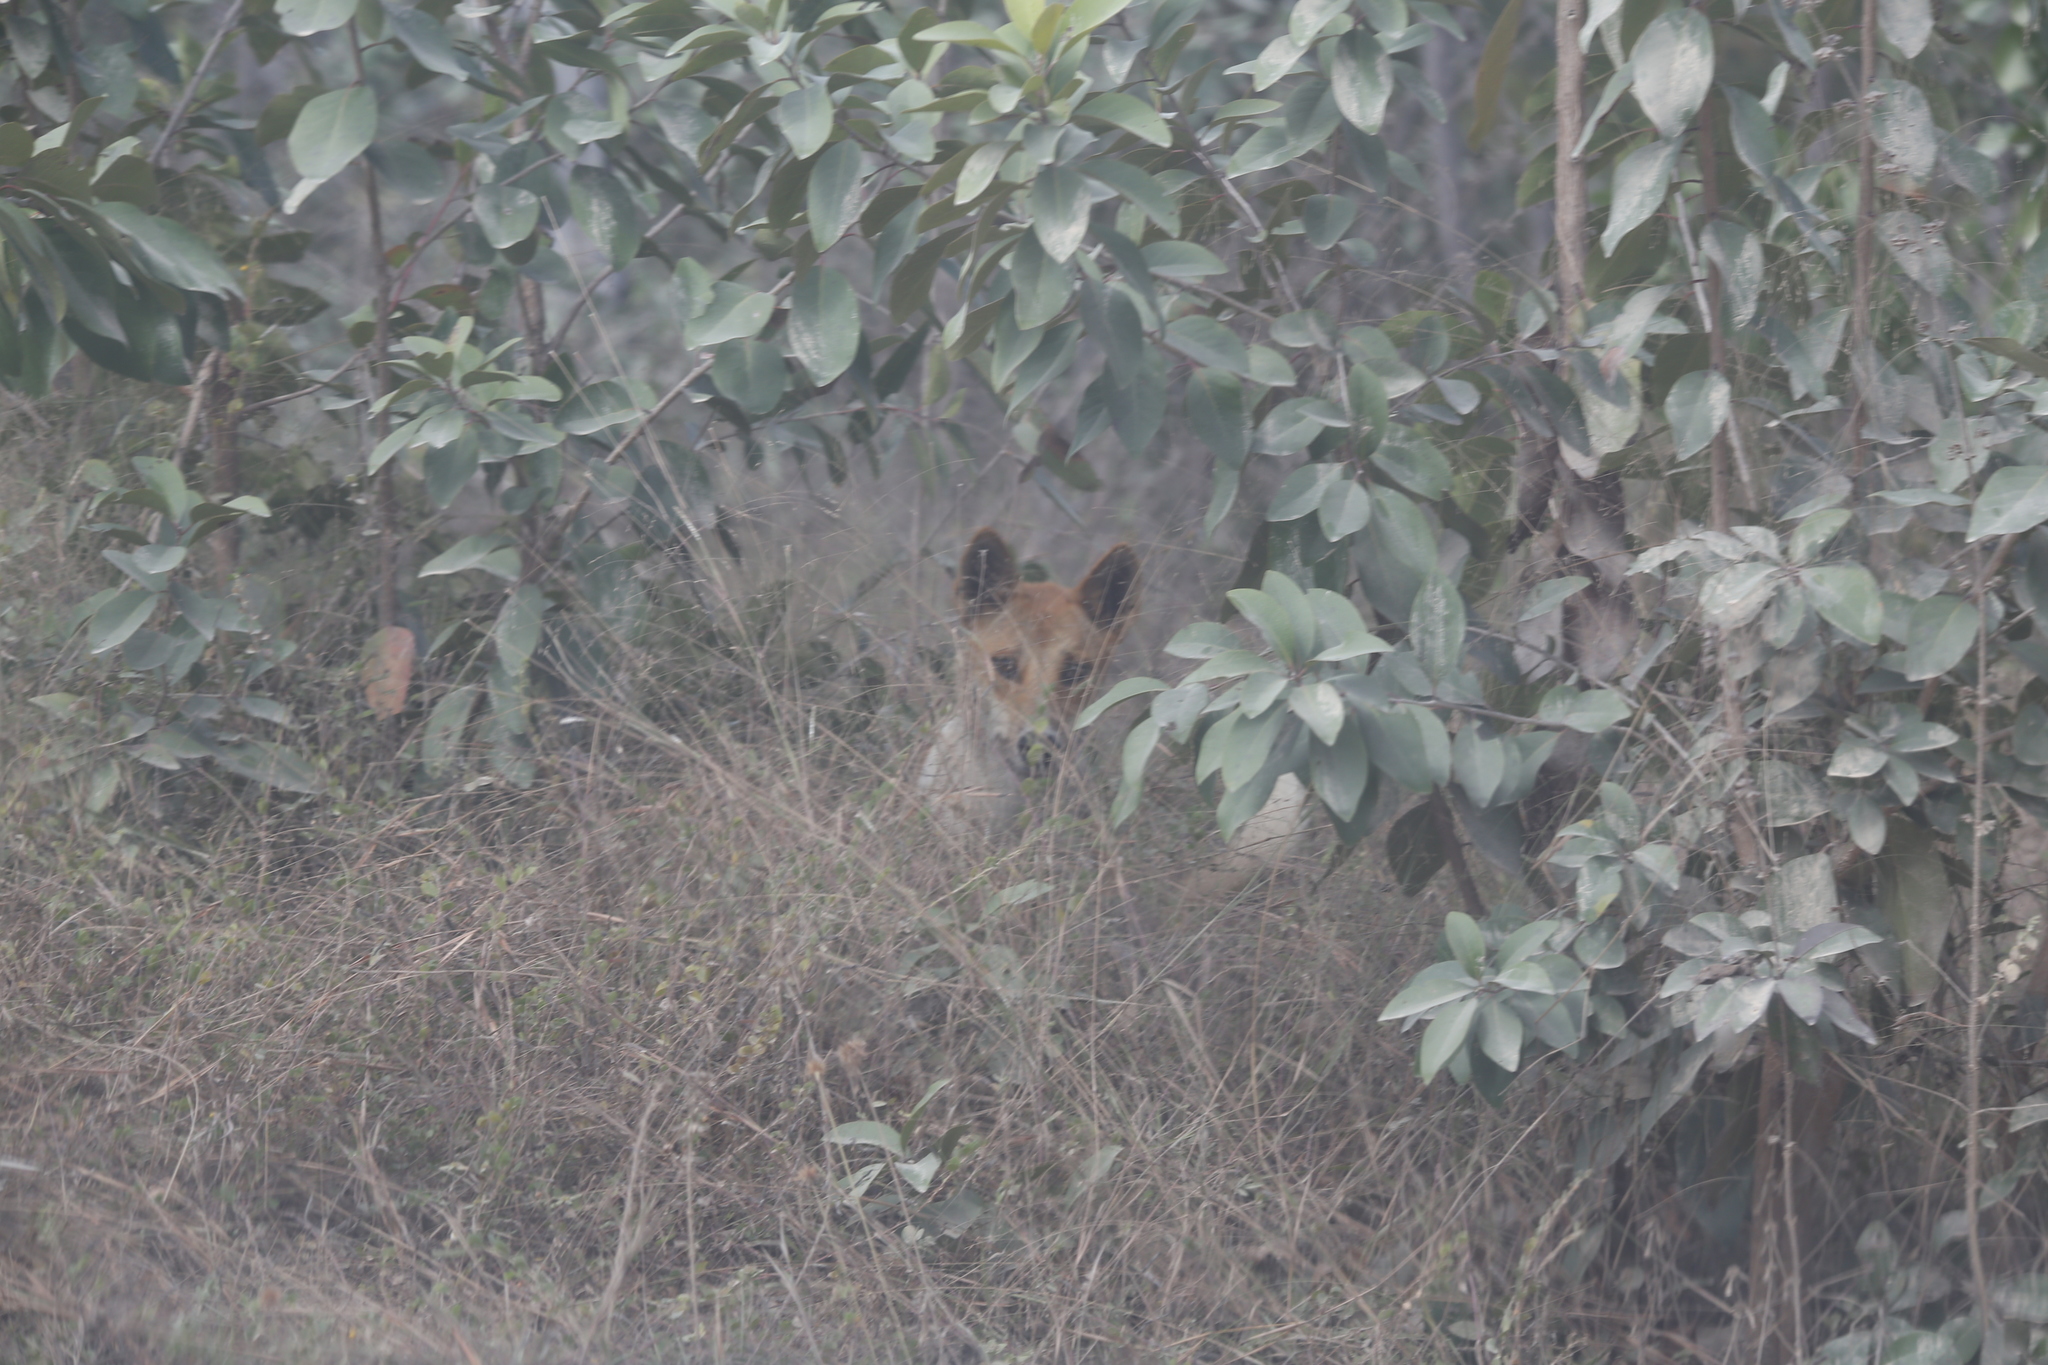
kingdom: Animalia
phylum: Chordata
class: Mammalia
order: Carnivora
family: Canidae
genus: Canis
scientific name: Canis lupus
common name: Gray wolf
